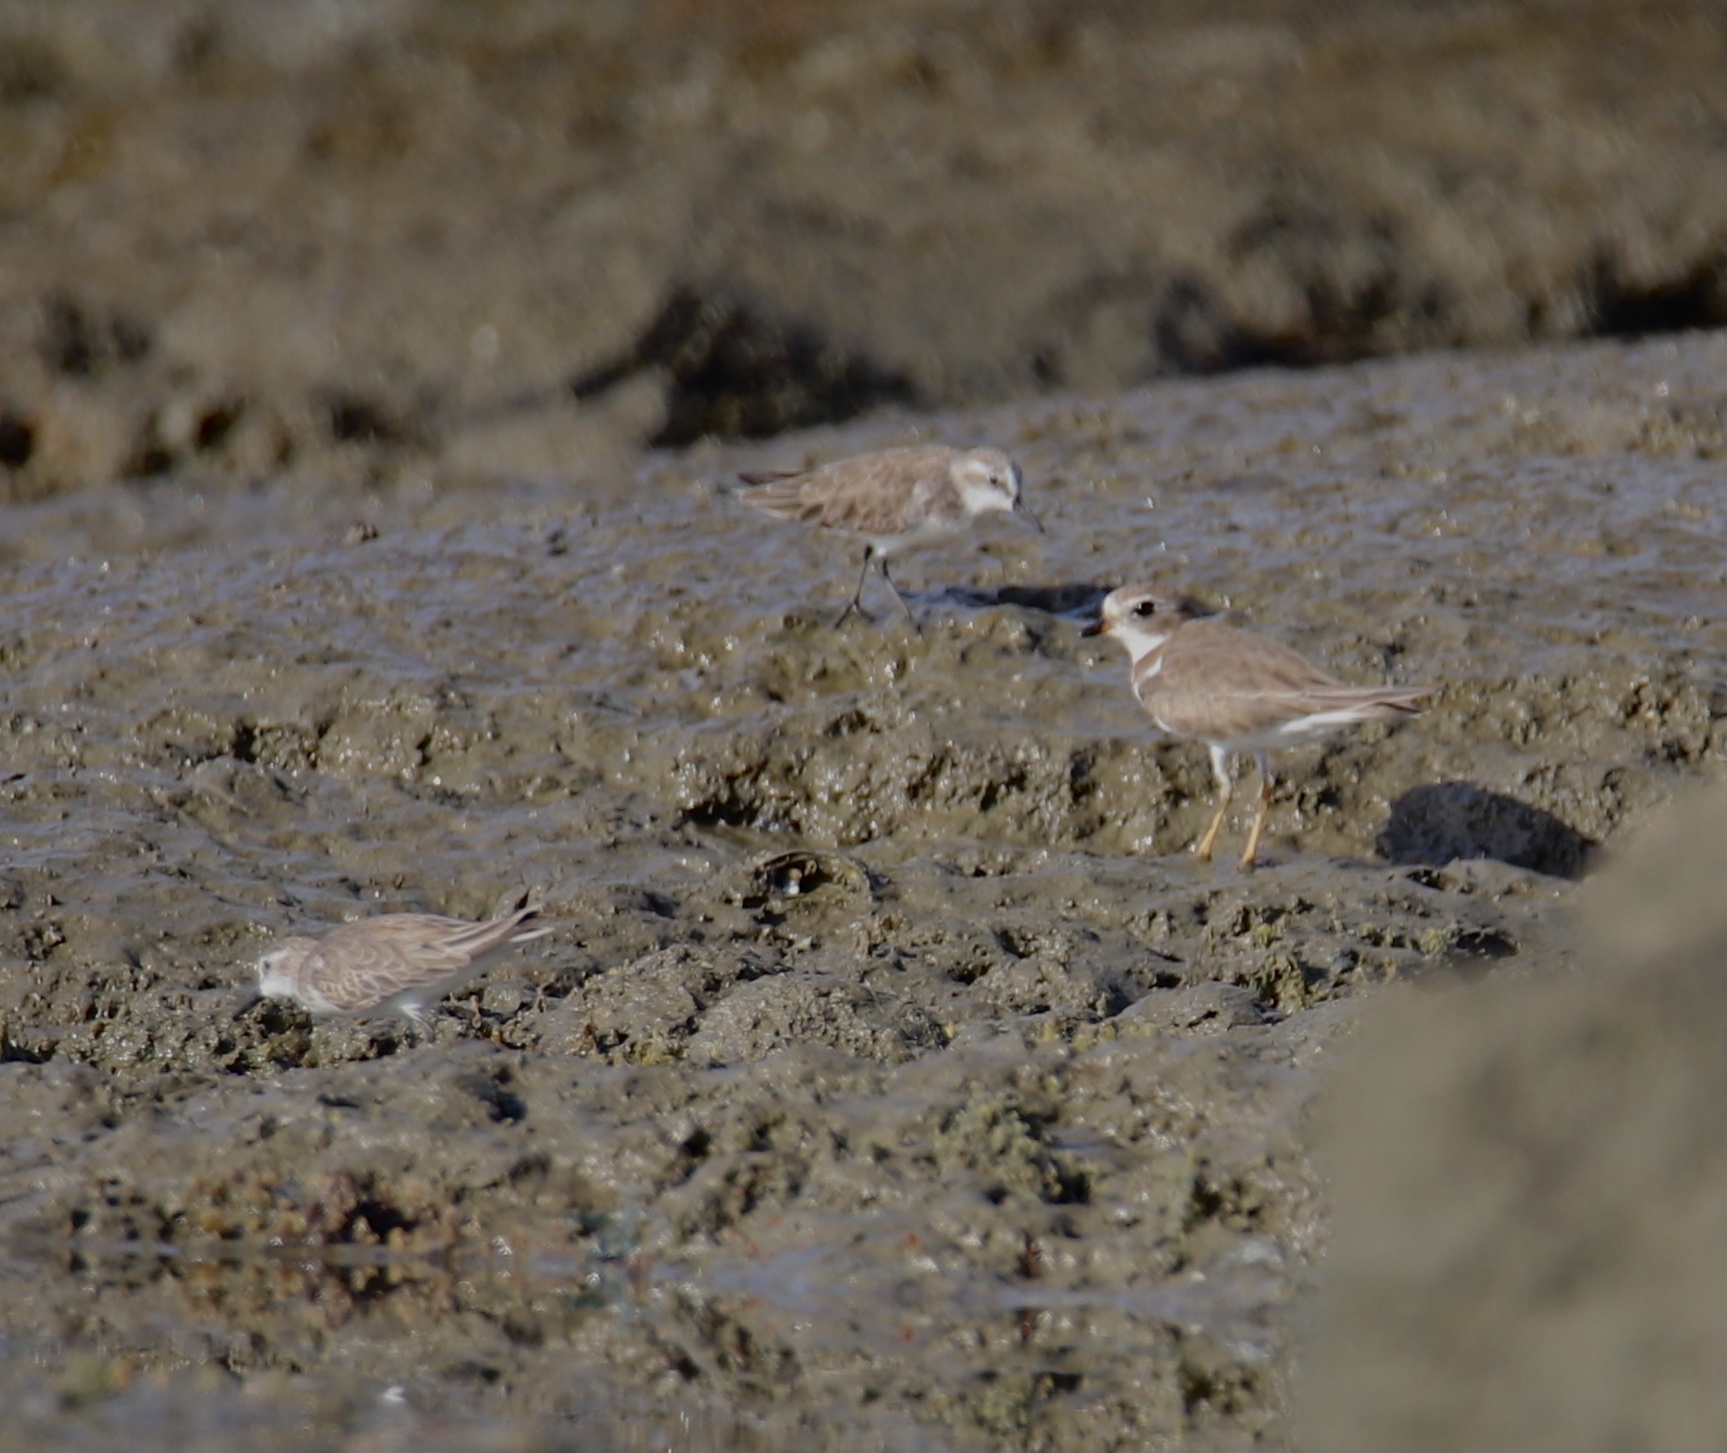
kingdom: Animalia
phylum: Chordata
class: Aves
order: Charadriiformes
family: Charadriidae
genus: Charadrius
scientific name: Charadrius semipalmatus
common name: Semipalmated plover
